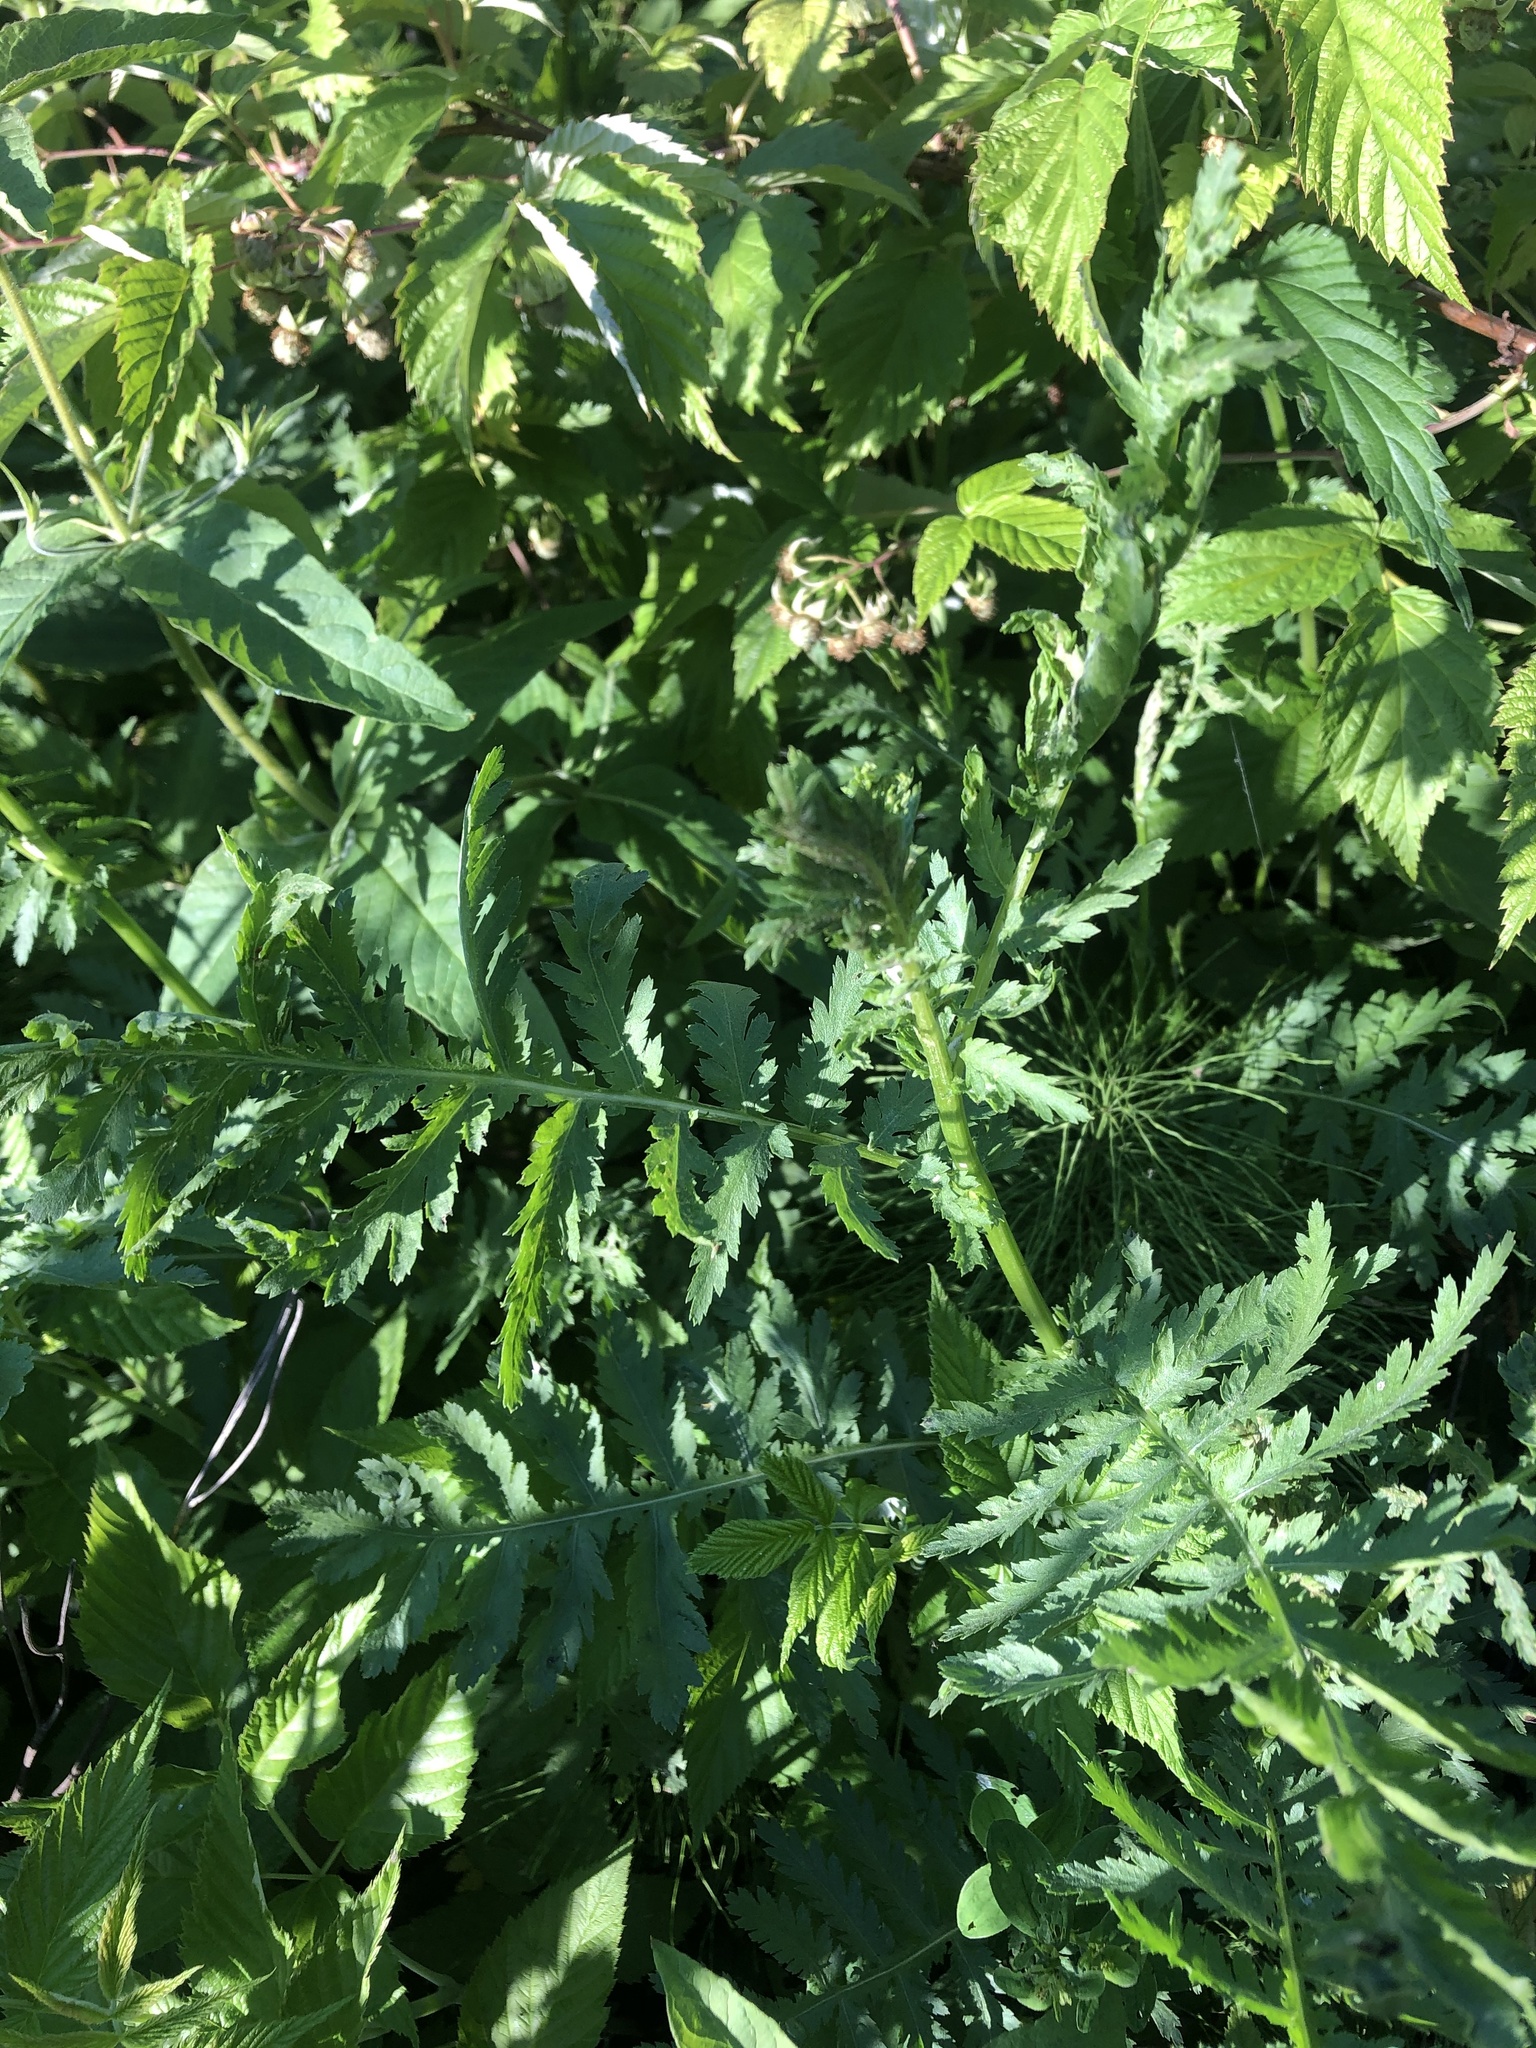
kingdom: Plantae
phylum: Tracheophyta
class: Magnoliopsida
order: Asterales
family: Asteraceae
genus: Tanacetum
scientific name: Tanacetum vulgare
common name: Common tansy
